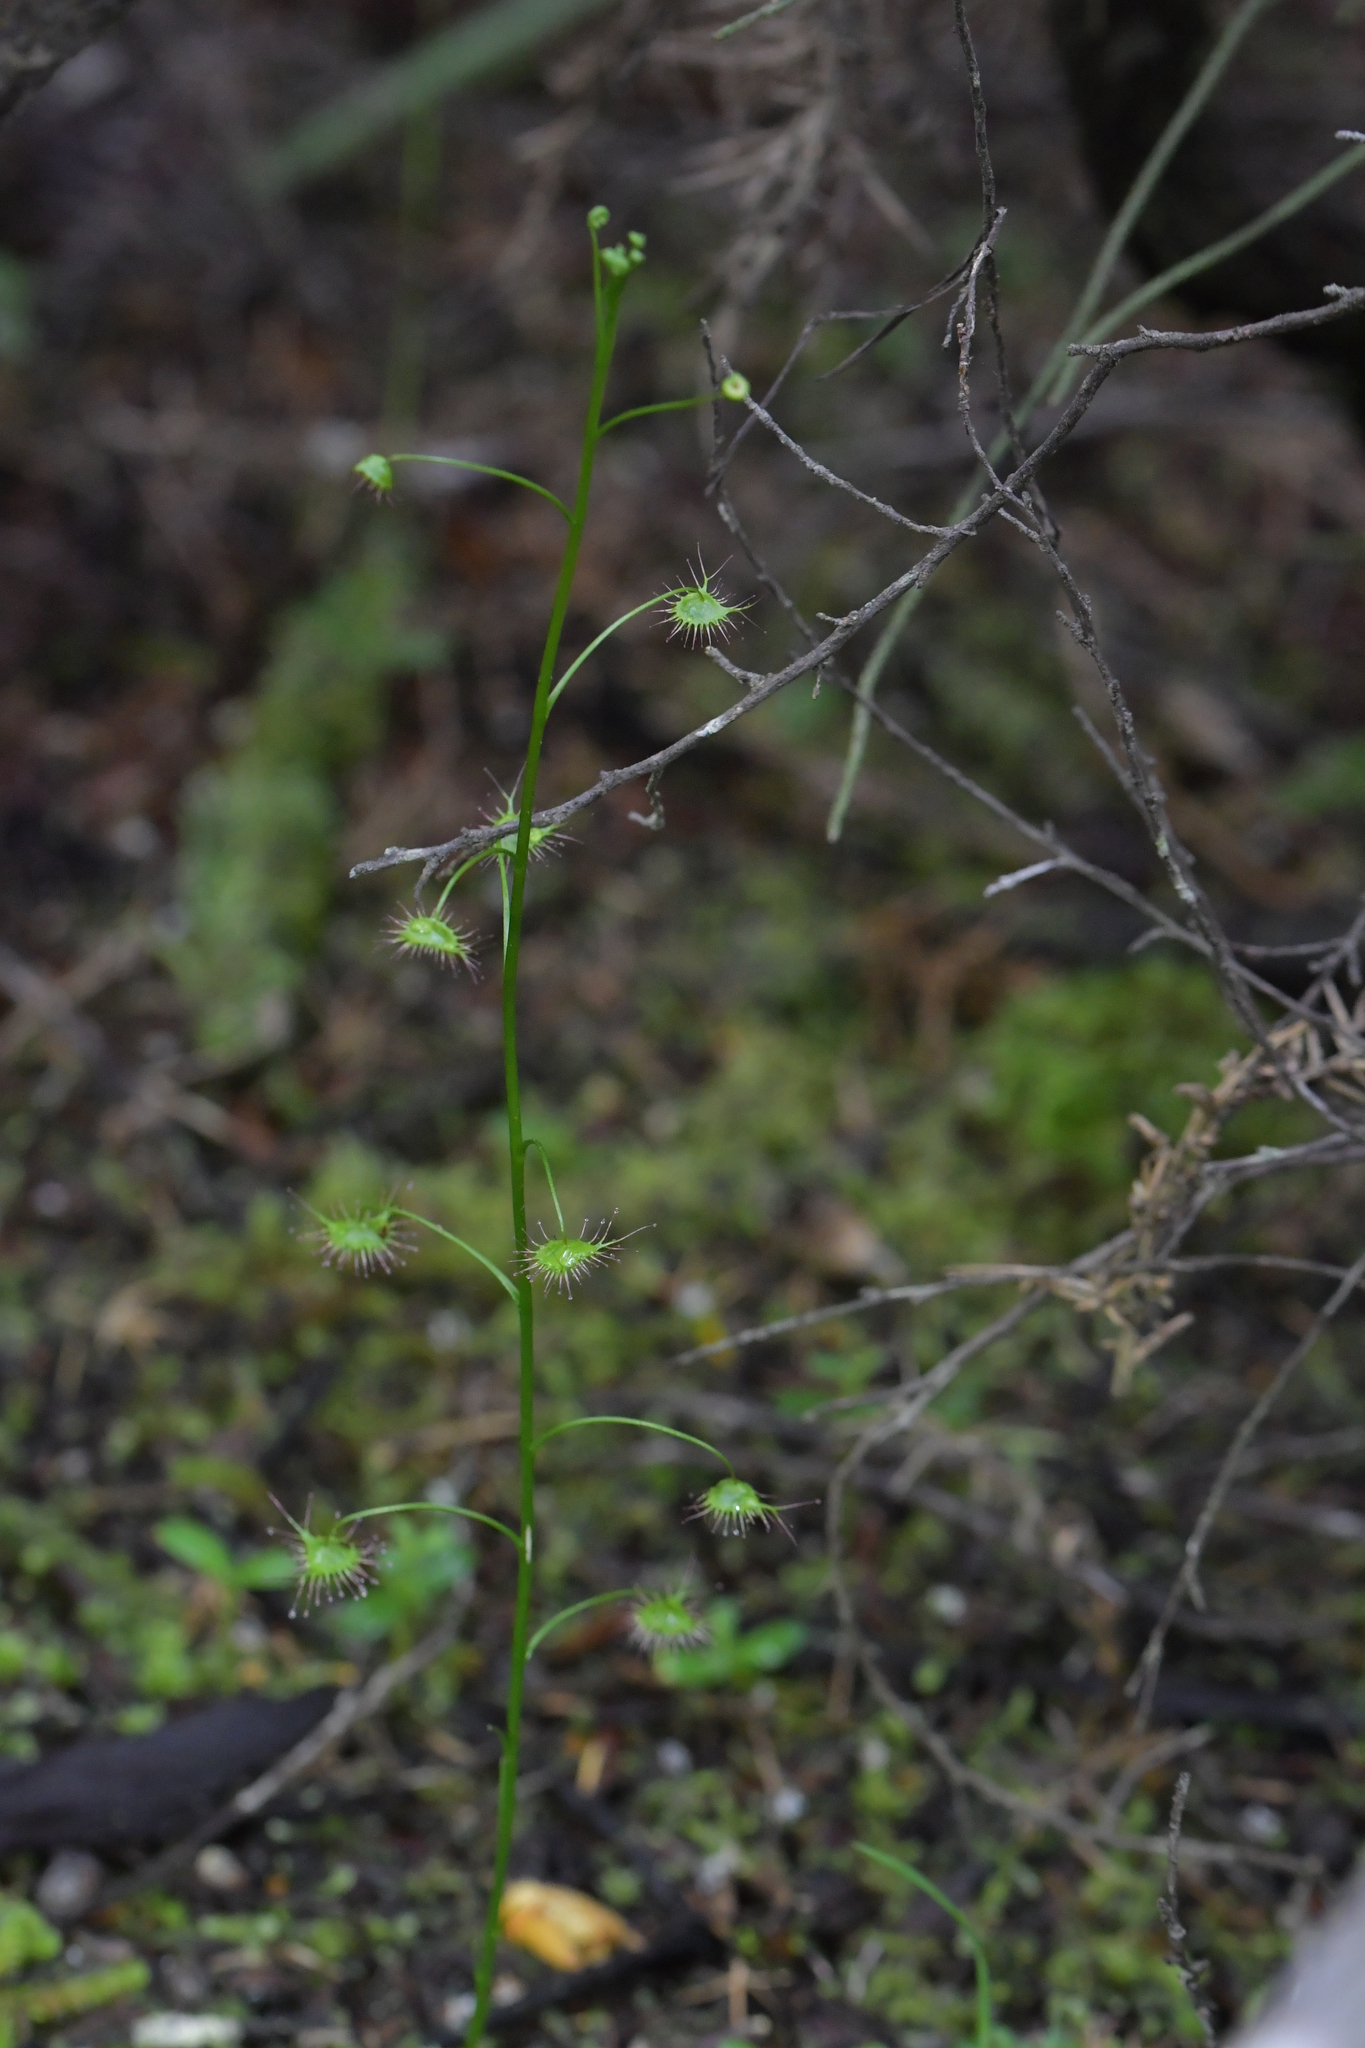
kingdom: Plantae
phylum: Tracheophyta
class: Magnoliopsida
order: Caryophyllales
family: Droseraceae
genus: Drosera
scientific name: Drosera peltata
